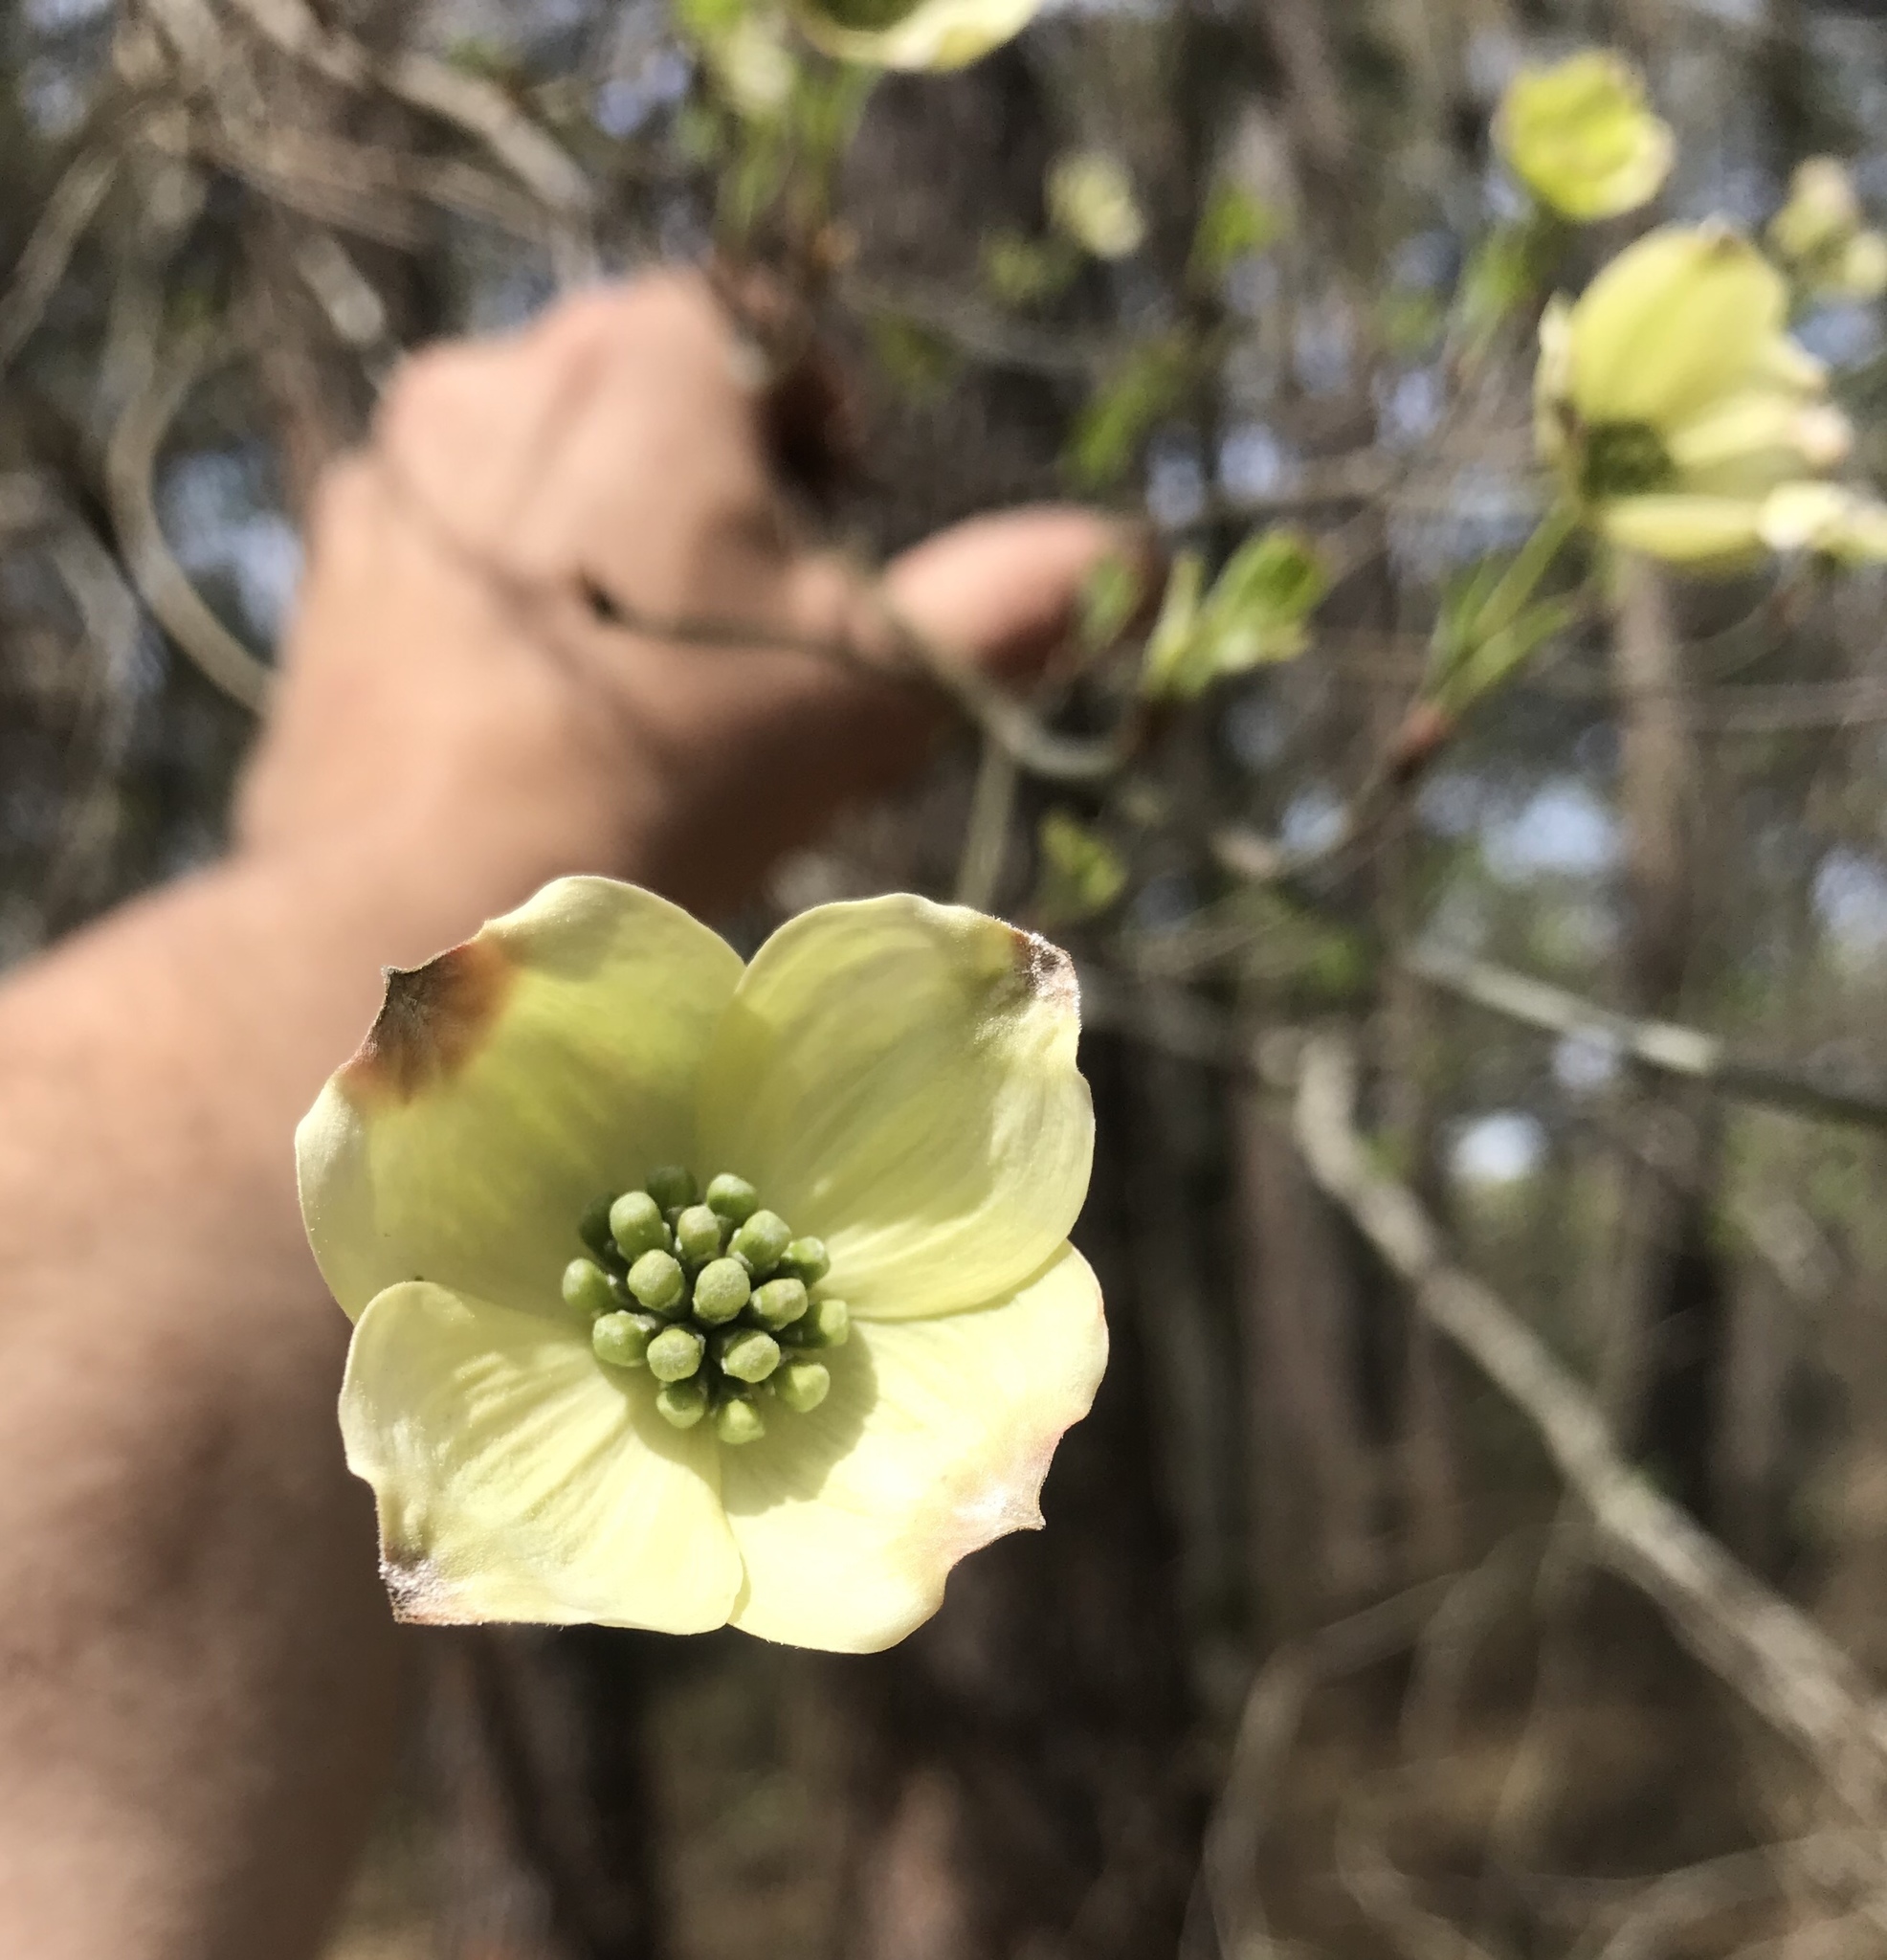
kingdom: Plantae
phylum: Tracheophyta
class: Magnoliopsida
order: Cornales
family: Cornaceae
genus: Cornus
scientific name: Cornus florida
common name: Flowering dogwood
